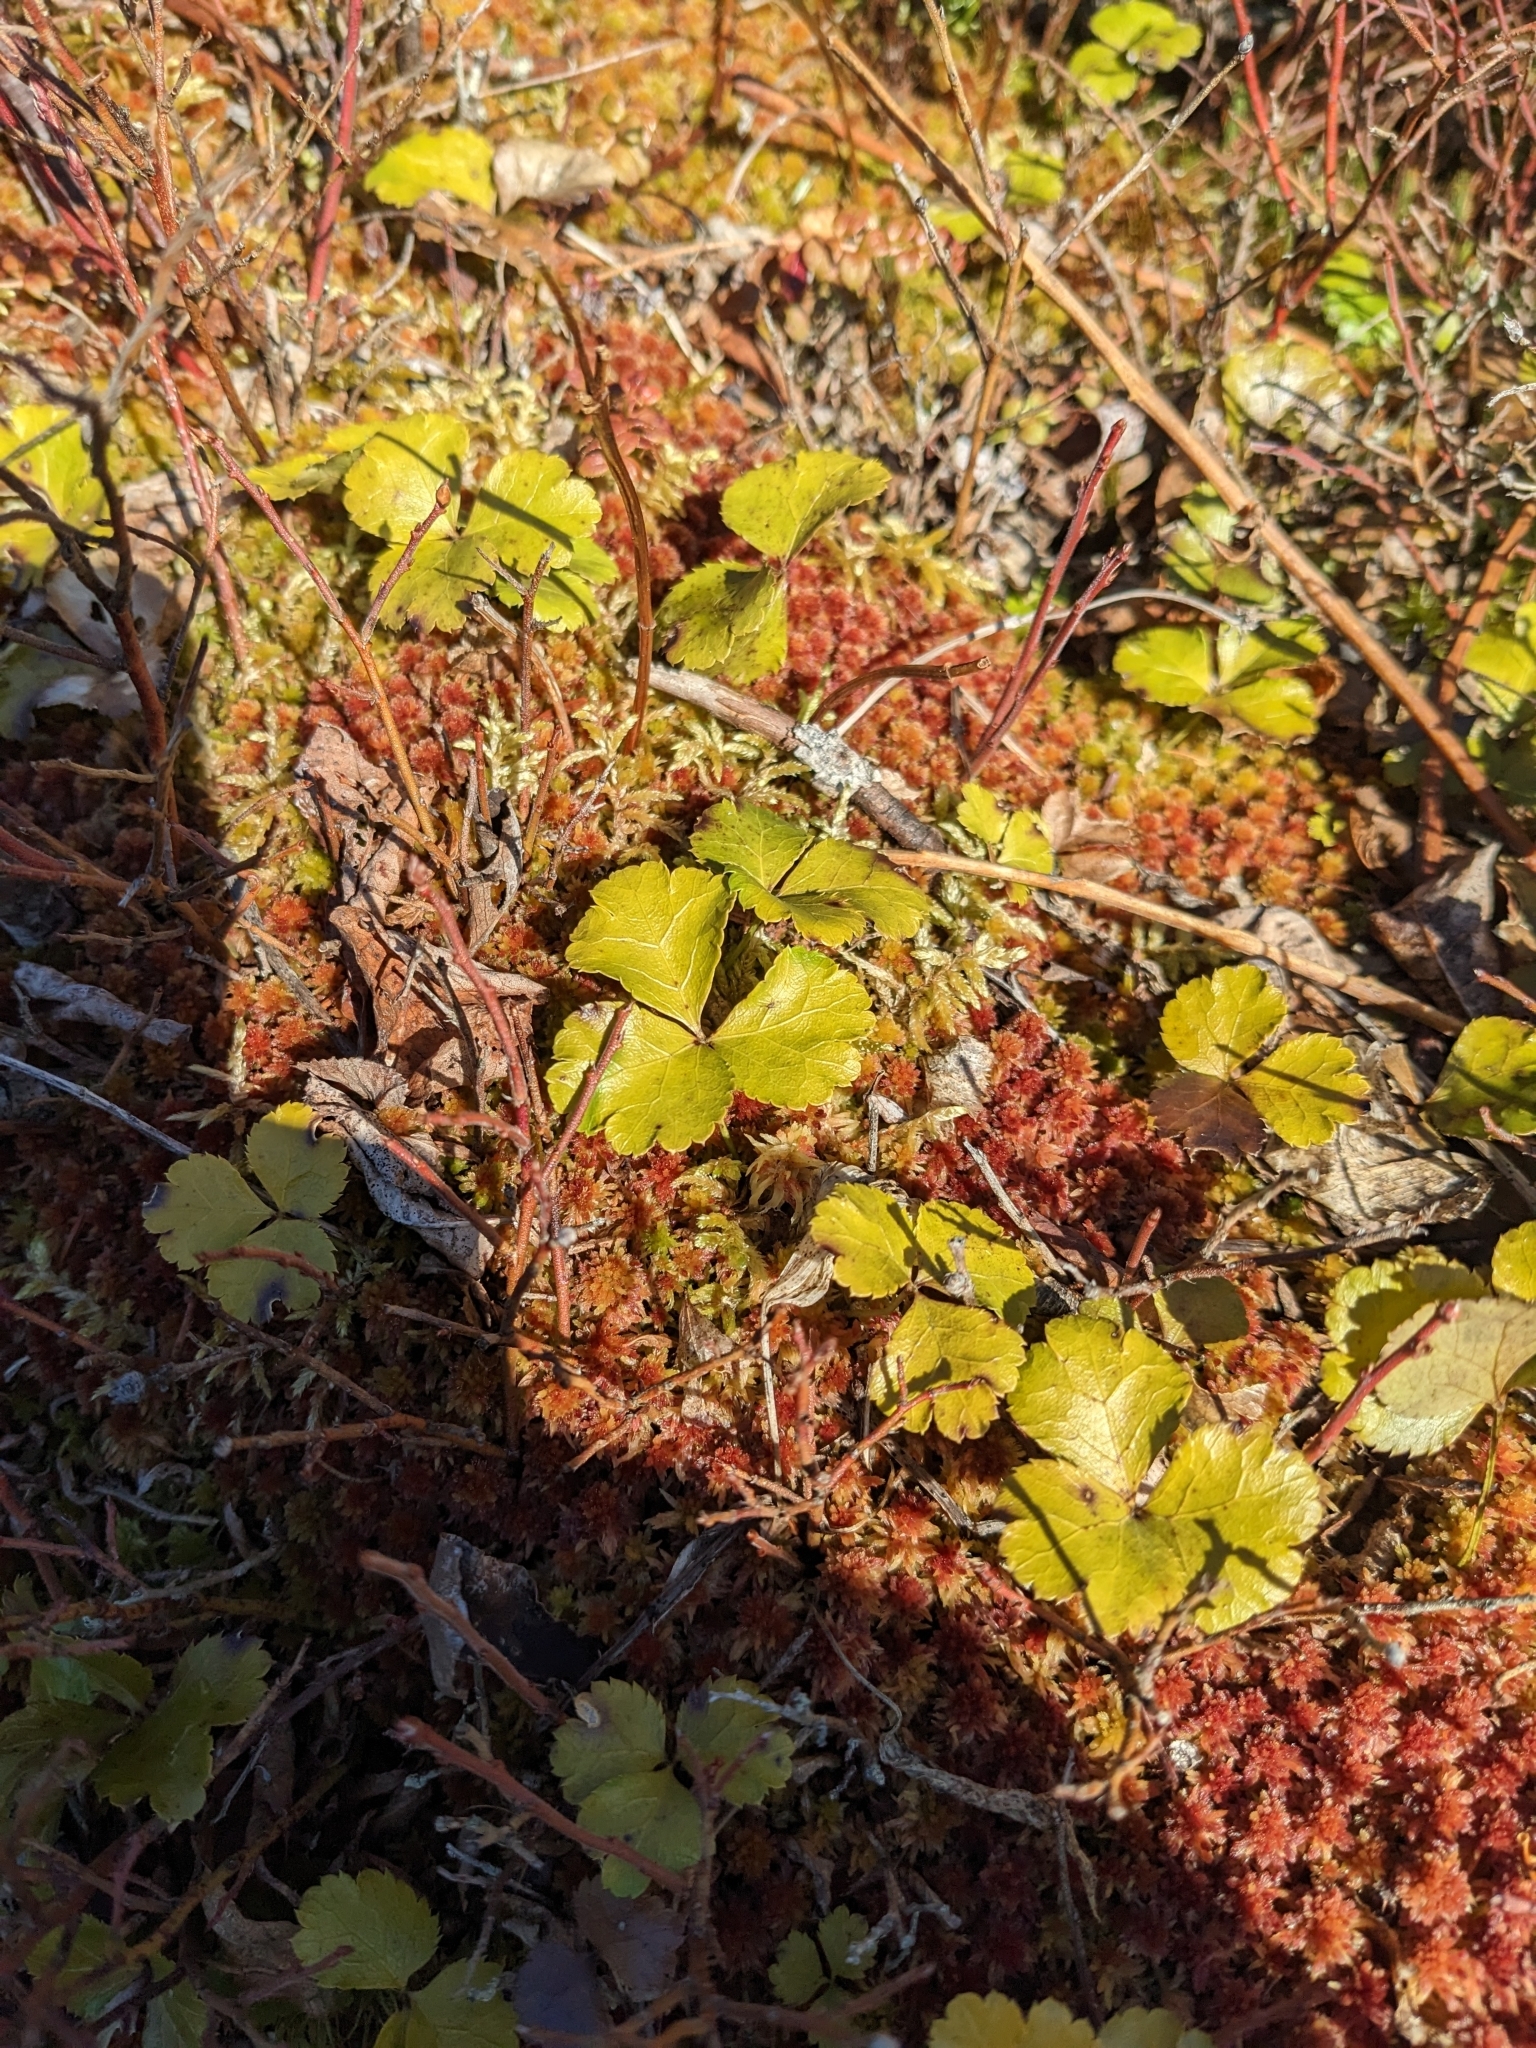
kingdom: Plantae
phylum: Tracheophyta
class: Magnoliopsida
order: Ranunculales
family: Ranunculaceae
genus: Coptis
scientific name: Coptis trifolia
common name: Canker-root
